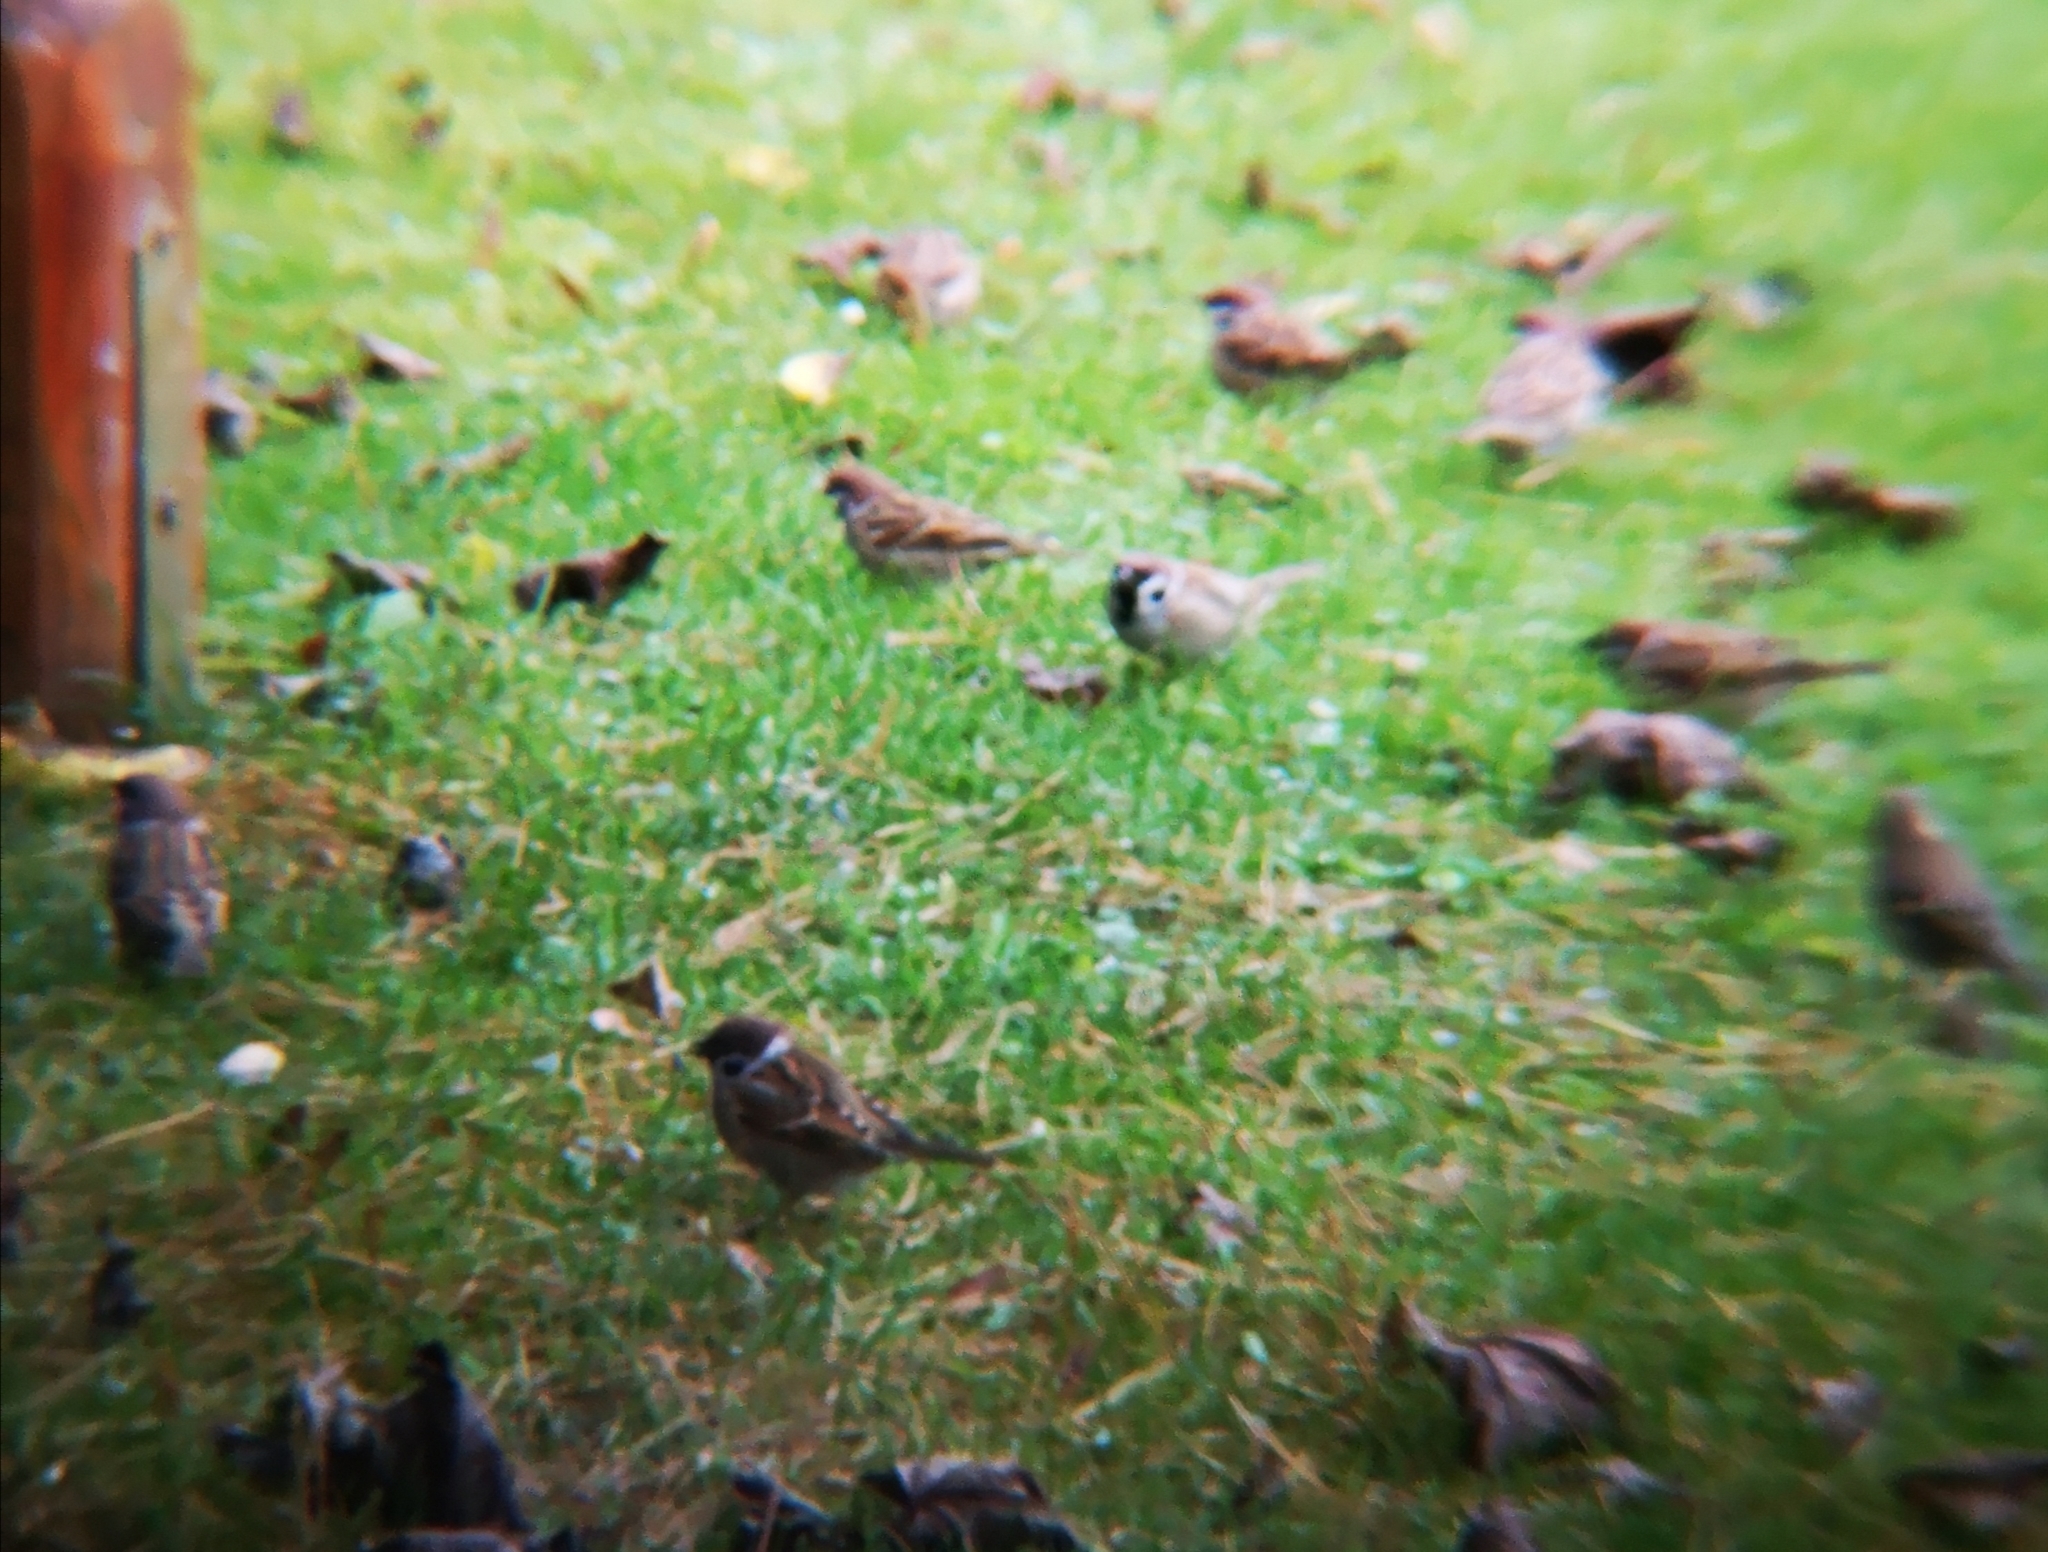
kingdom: Animalia
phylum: Chordata
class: Aves
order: Passeriformes
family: Passeridae
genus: Passer
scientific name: Passer montanus
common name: Eurasian tree sparrow
